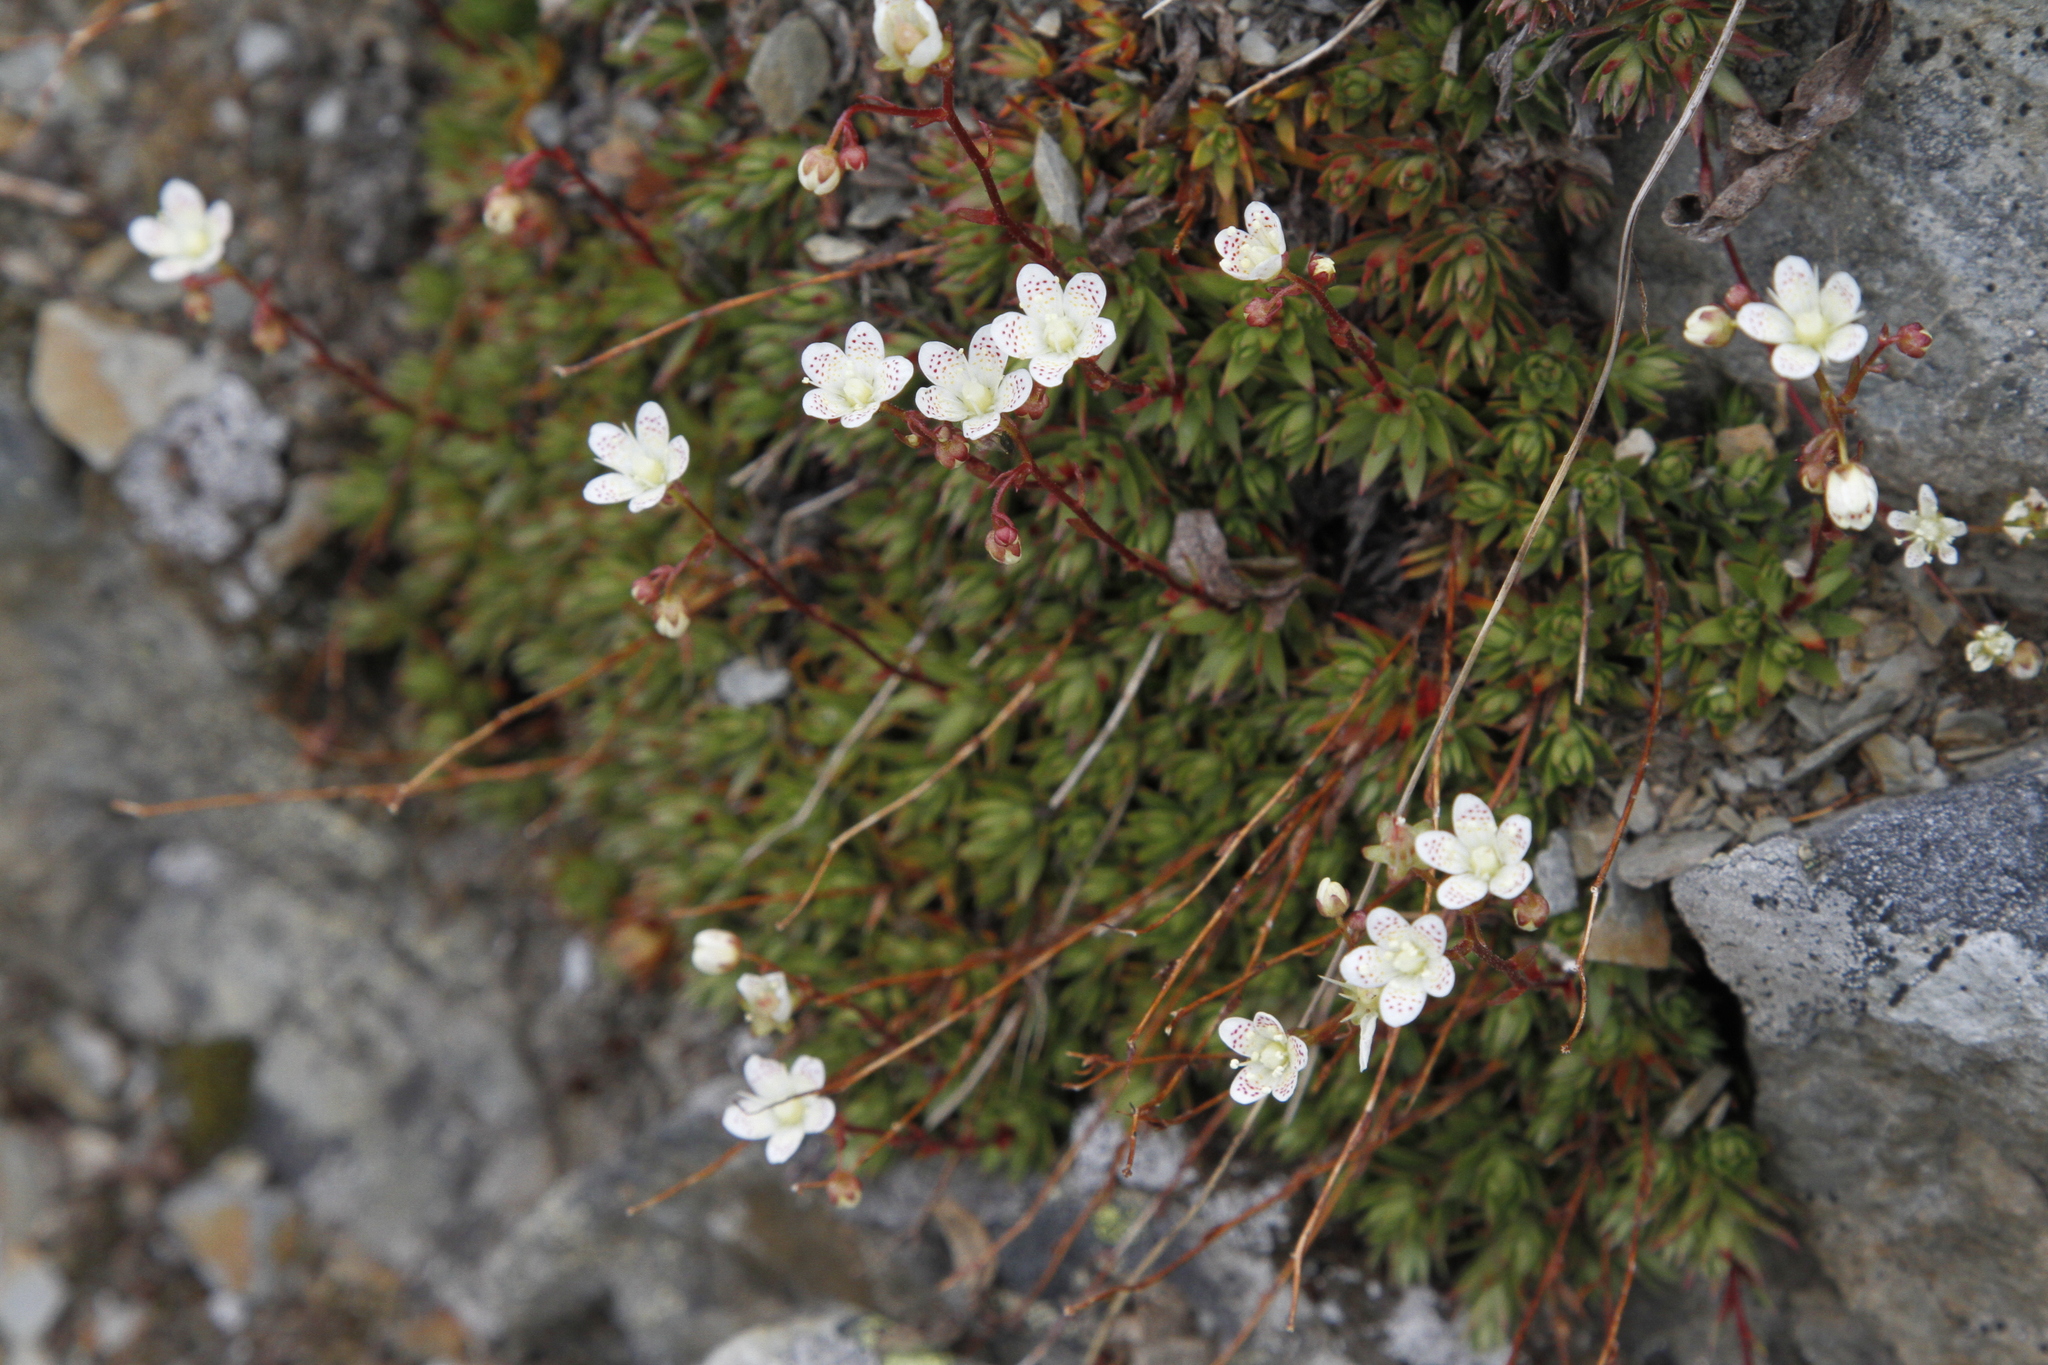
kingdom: Plantae
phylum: Tracheophyta
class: Magnoliopsida
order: Saxifragales
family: Saxifragaceae
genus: Saxifraga
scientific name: Saxifraga bronchialis
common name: Matted saxifrage
